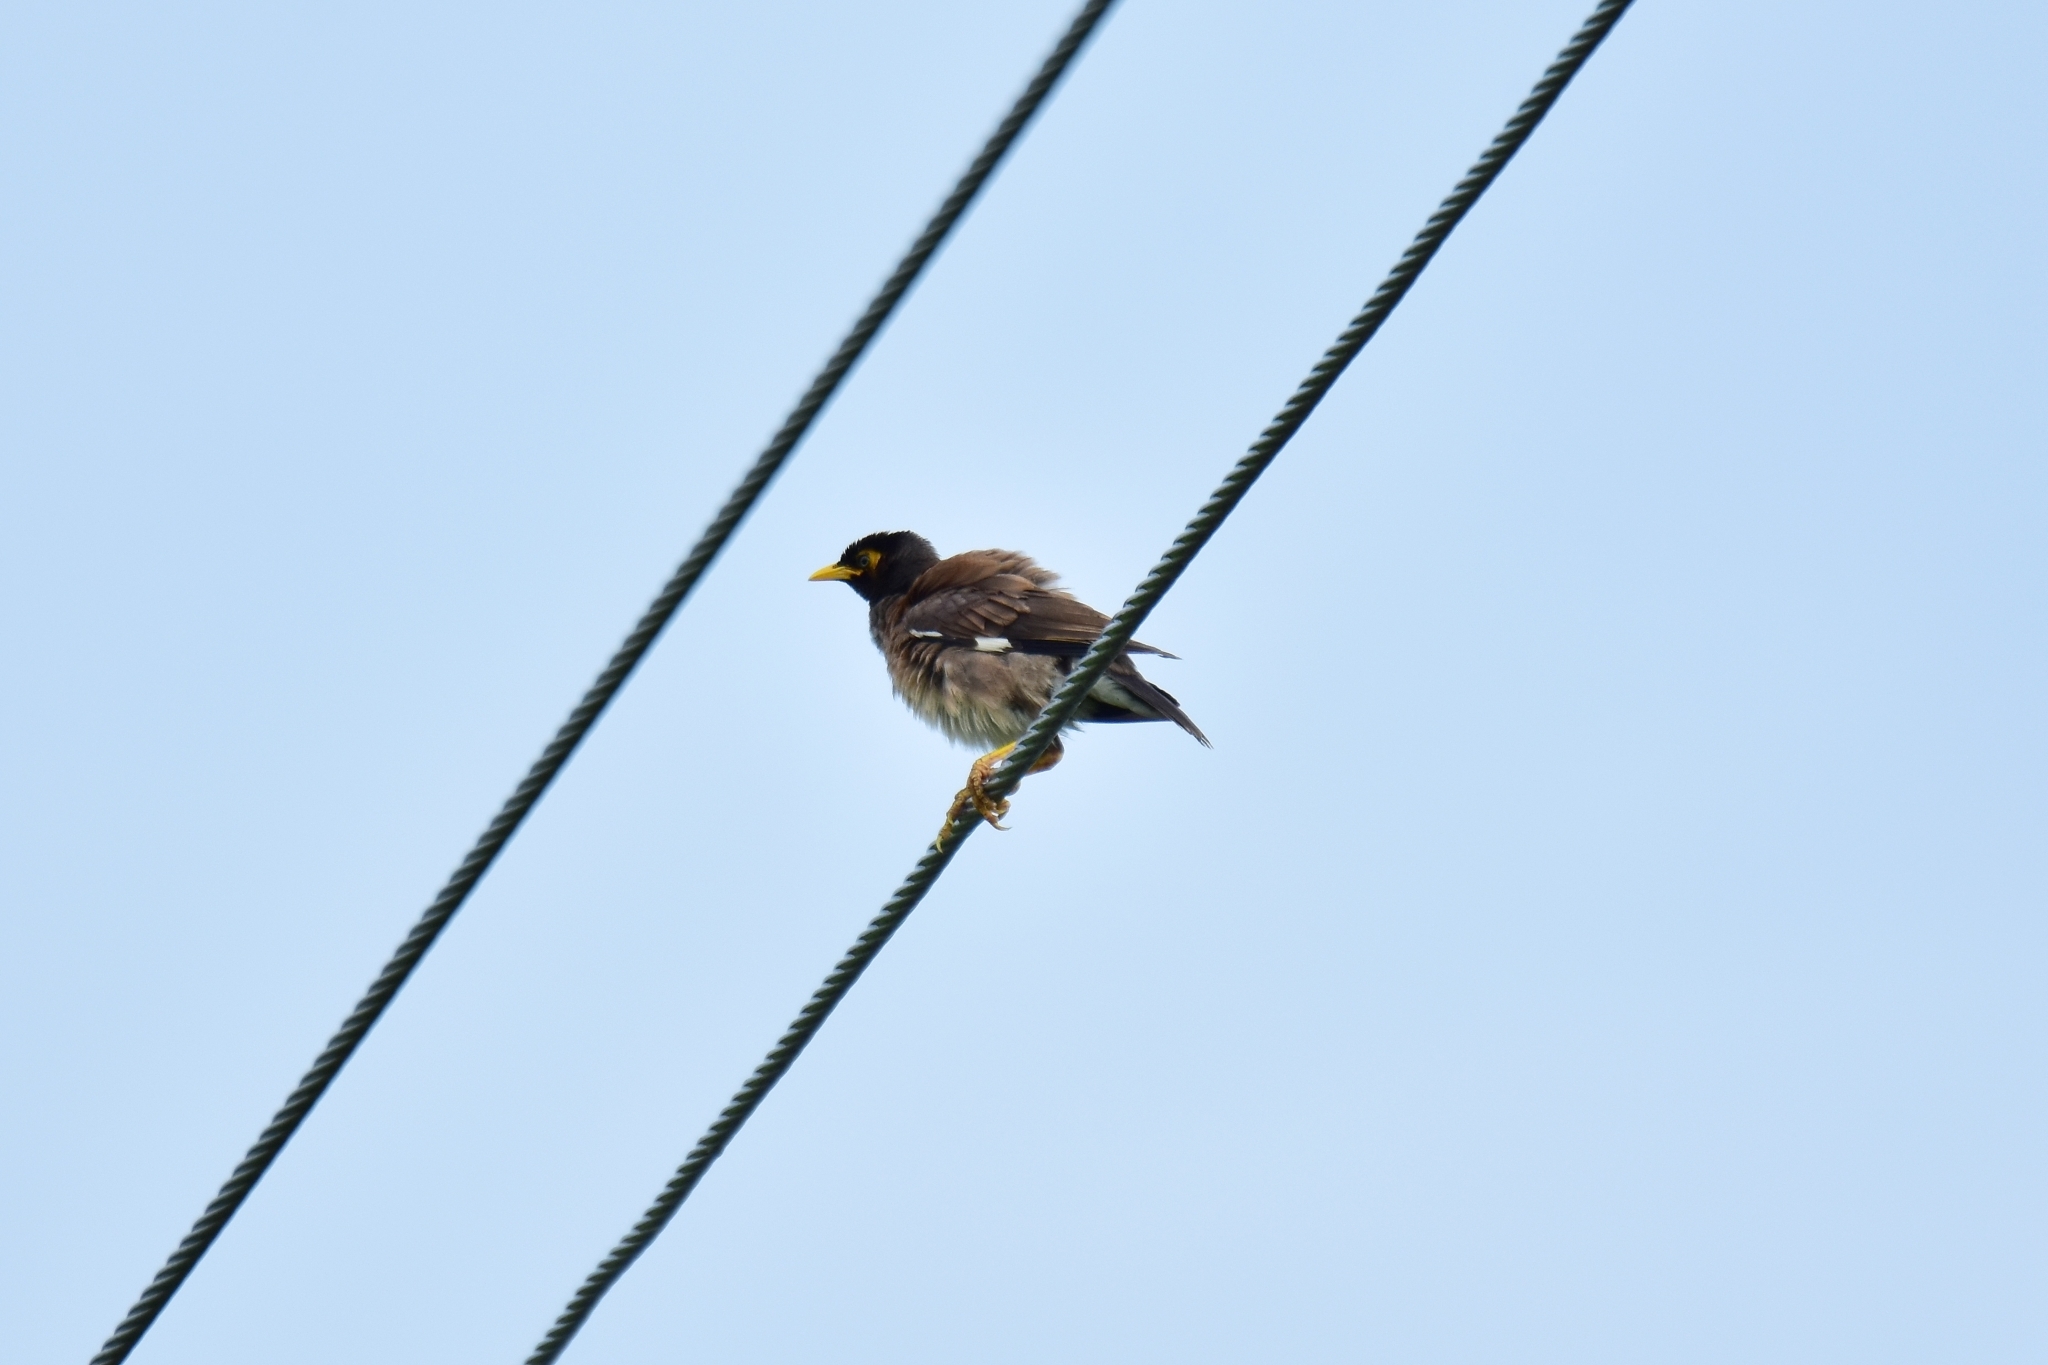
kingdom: Animalia
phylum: Chordata
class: Aves
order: Passeriformes
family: Sturnidae
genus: Acridotheres
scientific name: Acridotheres tristis
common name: Common myna
